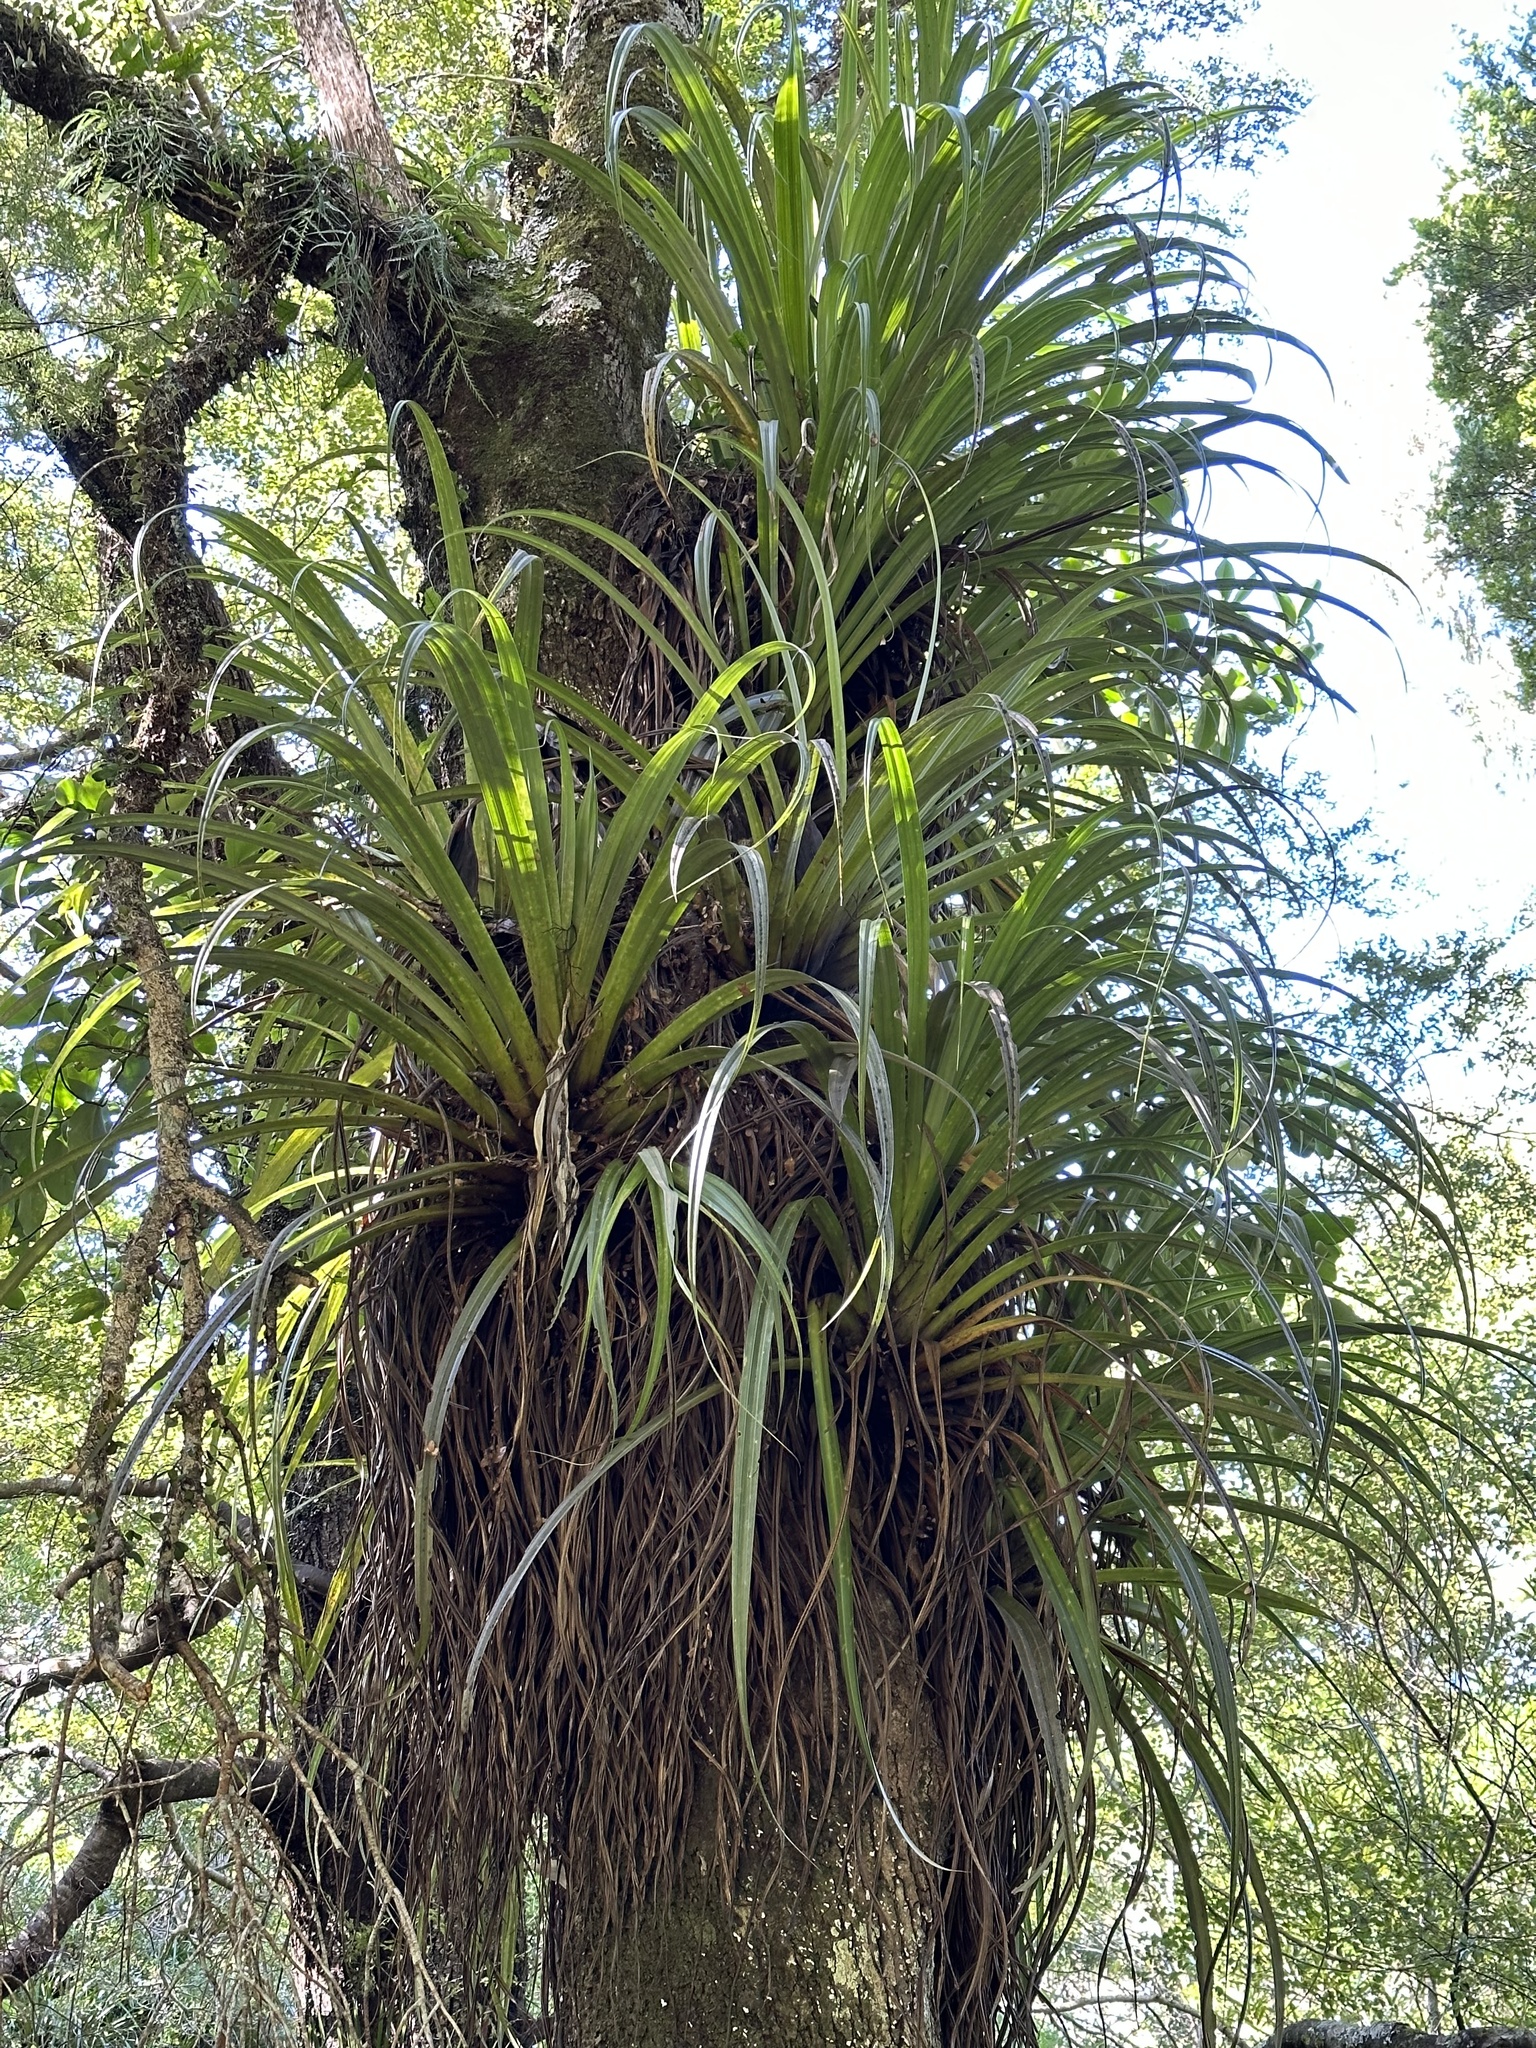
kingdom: Plantae
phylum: Tracheophyta
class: Liliopsida
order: Asparagales
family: Asteliaceae
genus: Astelia
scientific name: Astelia hastata
